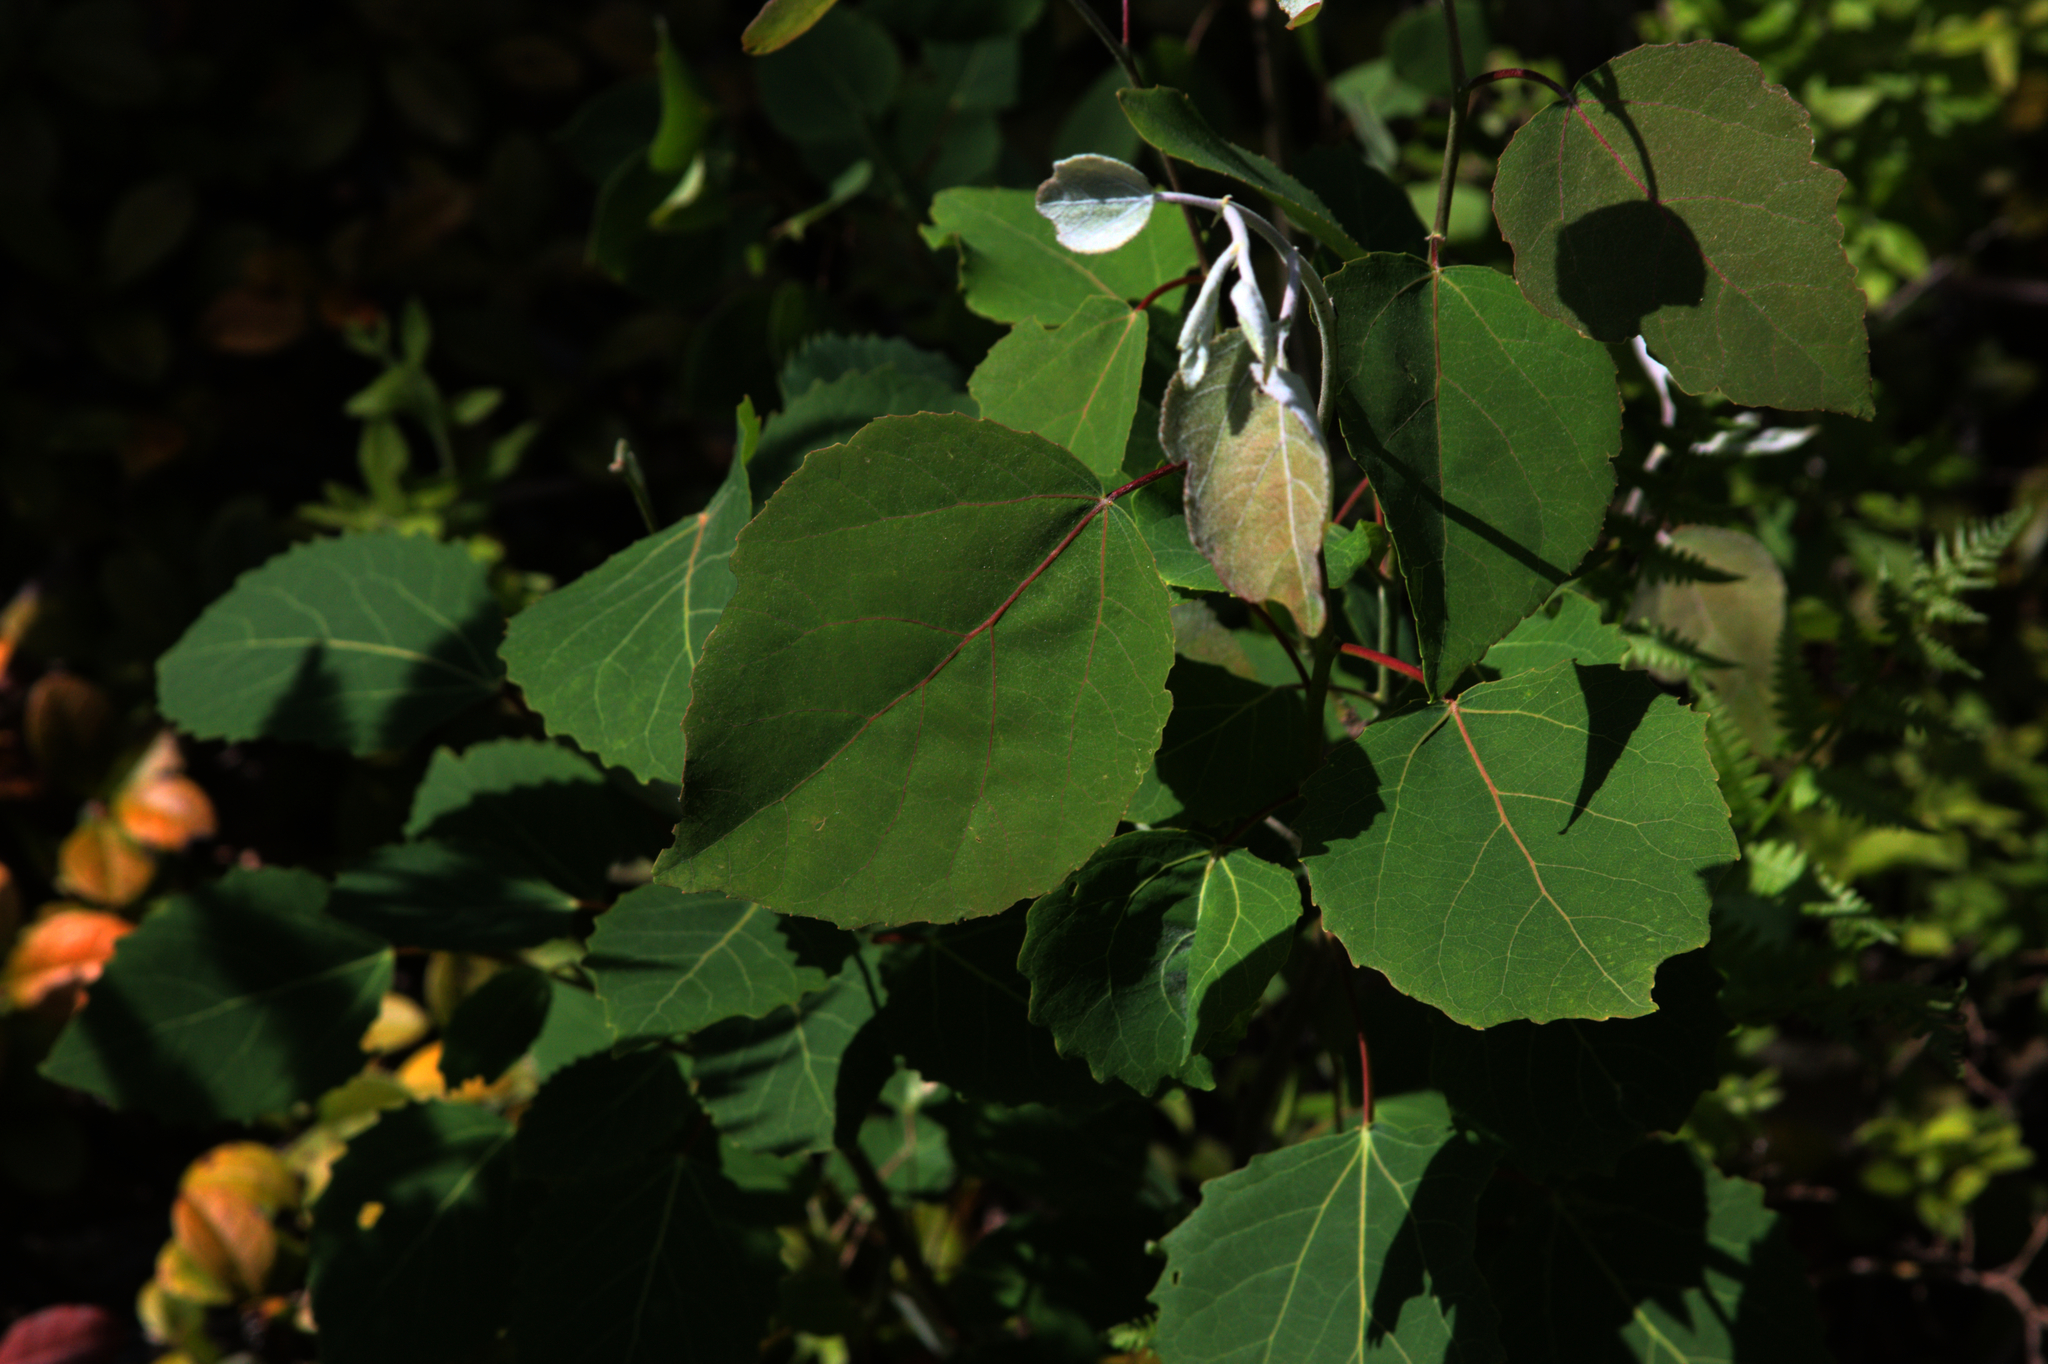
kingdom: Plantae
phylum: Tracheophyta
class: Magnoliopsida
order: Malpighiales
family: Salicaceae
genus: Populus
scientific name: Populus grandidentata
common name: Bigtooth aspen
